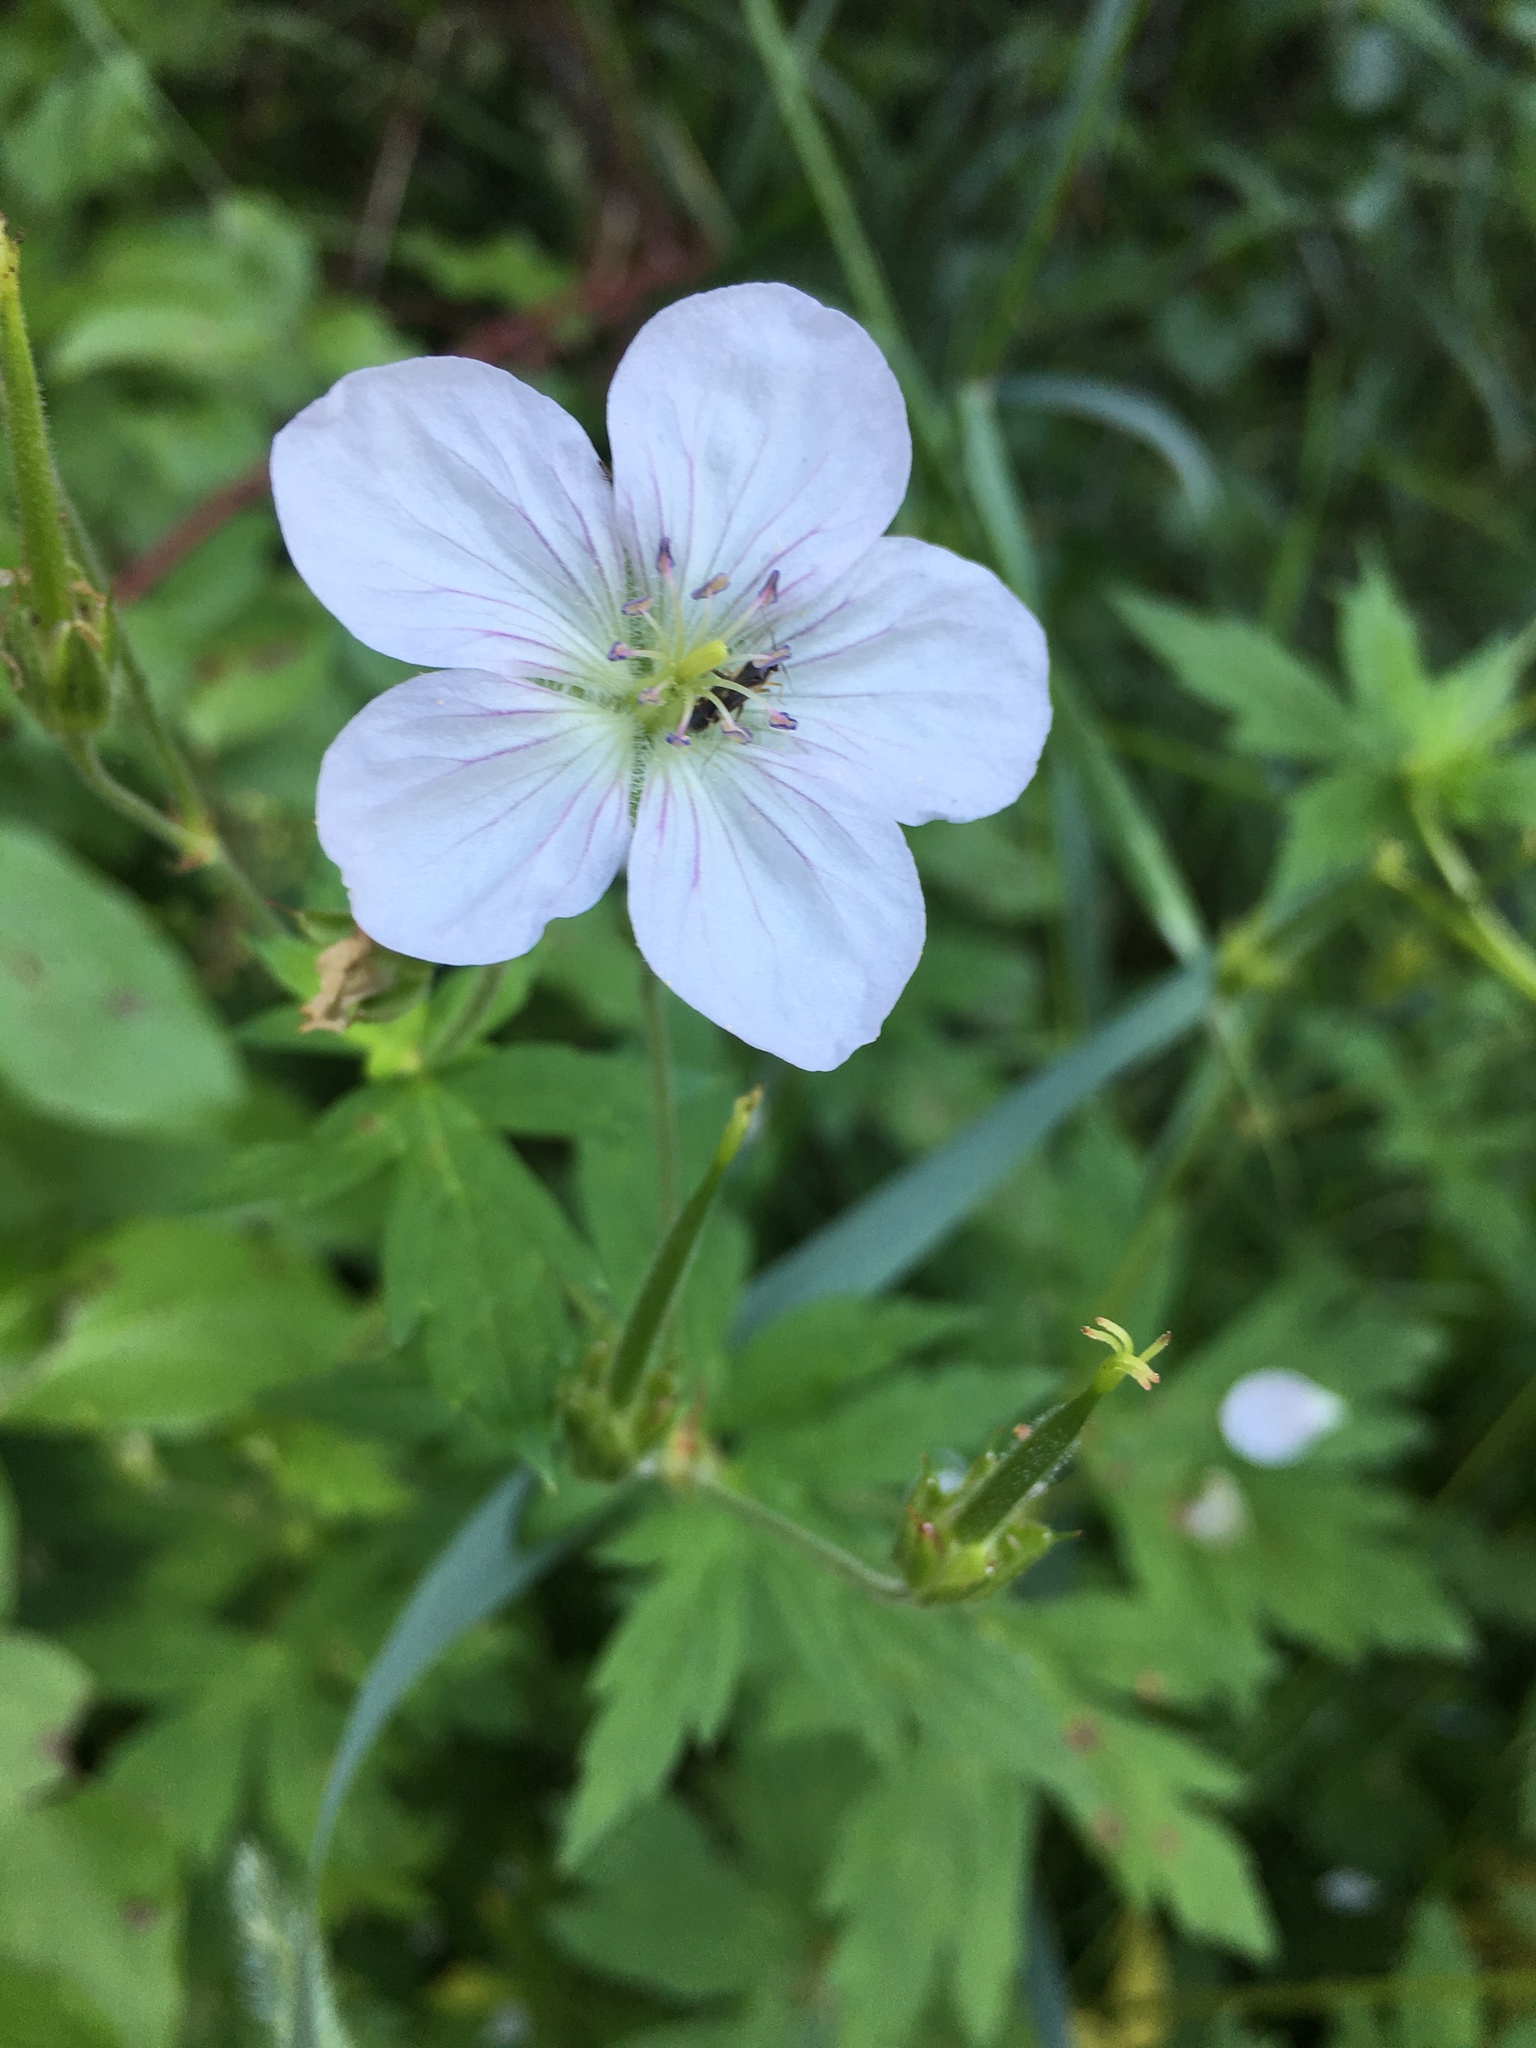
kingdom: Plantae
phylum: Tracheophyta
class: Magnoliopsida
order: Geraniales
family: Geraniaceae
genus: Geranium
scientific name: Geranium richardsonii
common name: Richardson's crane's-bill
